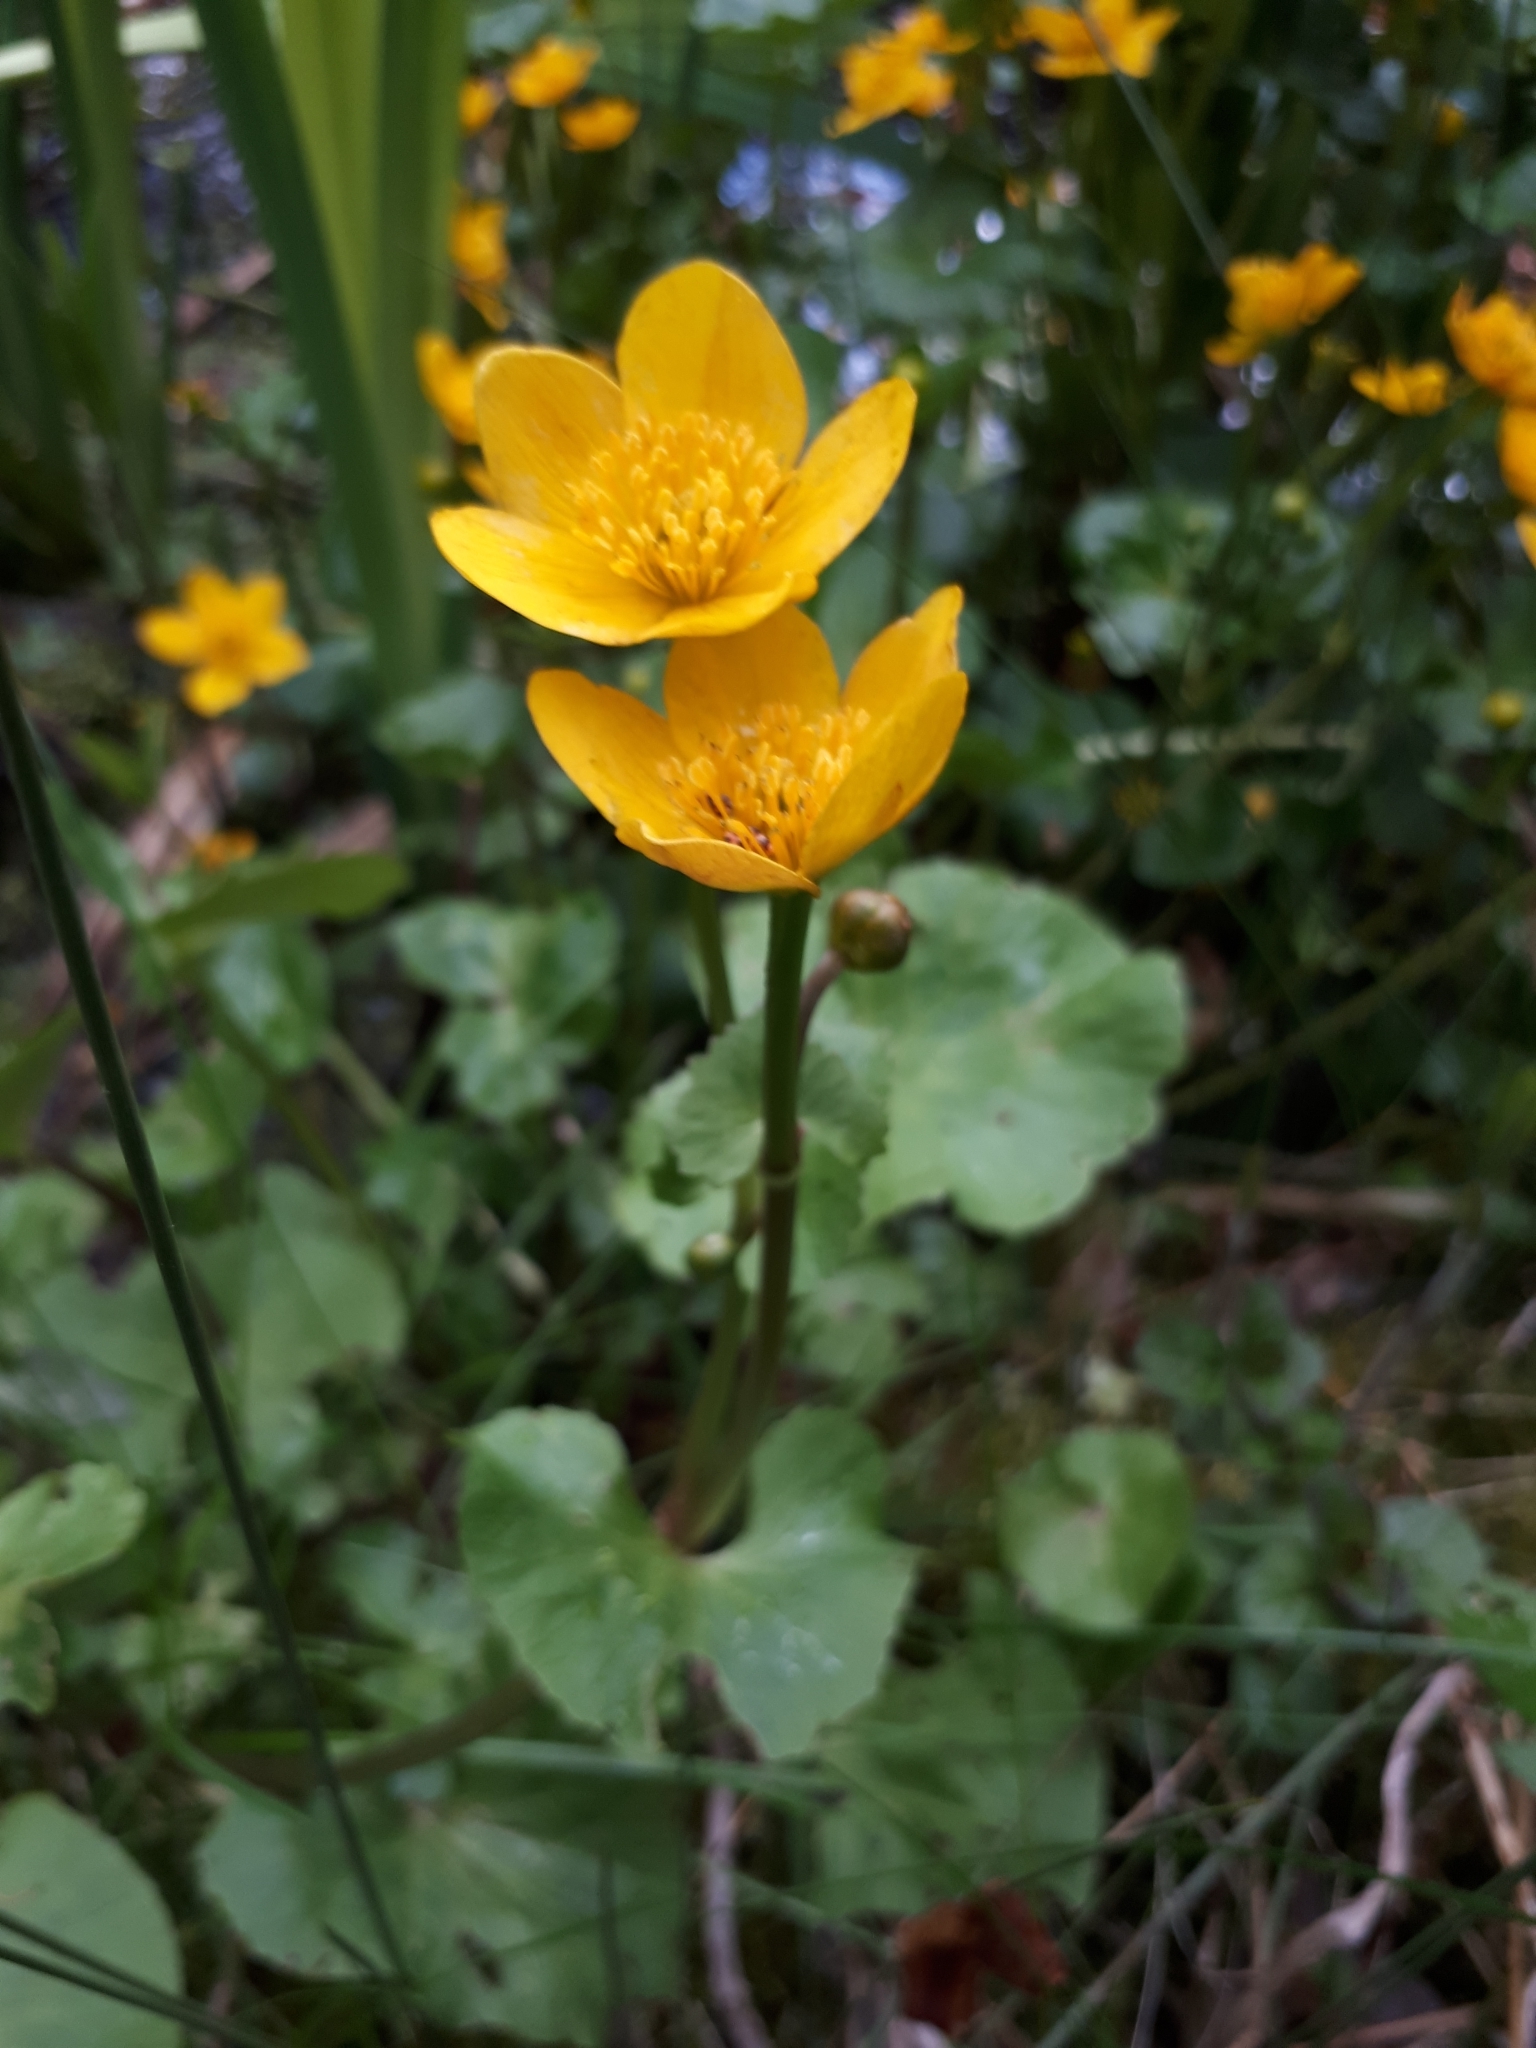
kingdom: Plantae
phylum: Tracheophyta
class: Magnoliopsida
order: Ranunculales
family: Ranunculaceae
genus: Caltha
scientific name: Caltha palustris
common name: Marsh marigold
